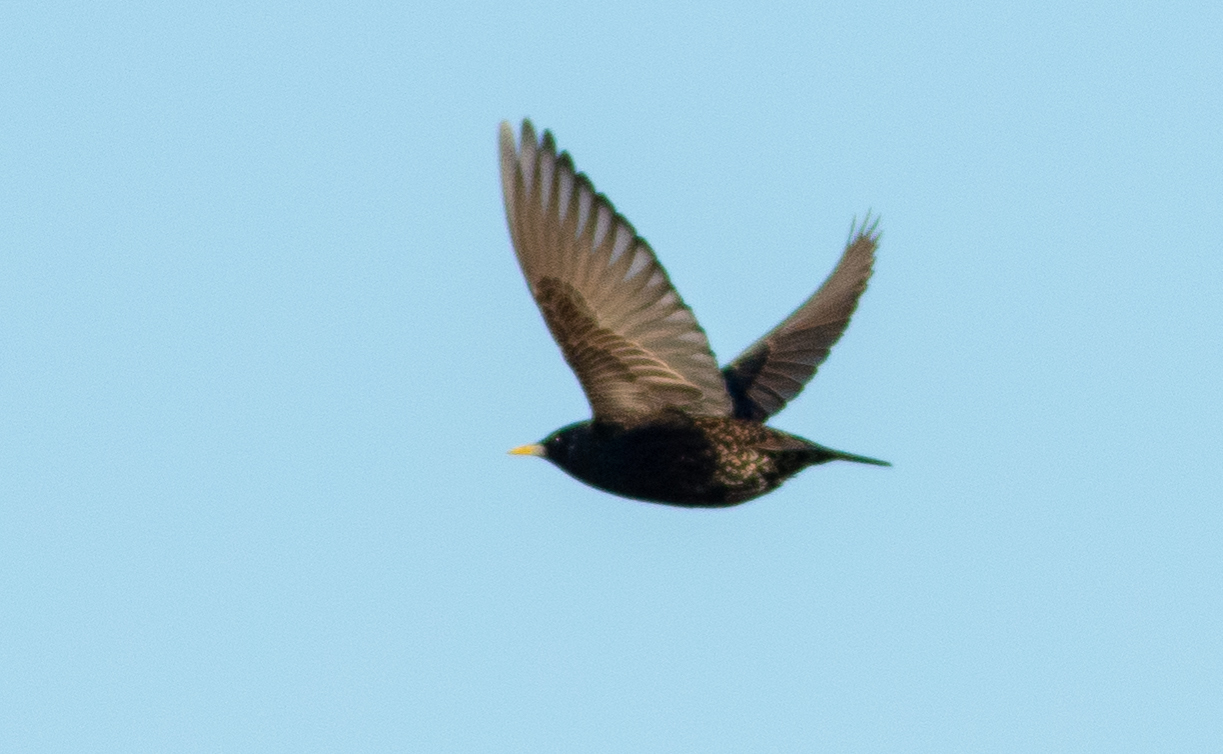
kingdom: Animalia
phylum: Chordata
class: Aves
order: Passeriformes
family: Sturnidae
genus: Sturnus
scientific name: Sturnus vulgaris
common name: Common starling
